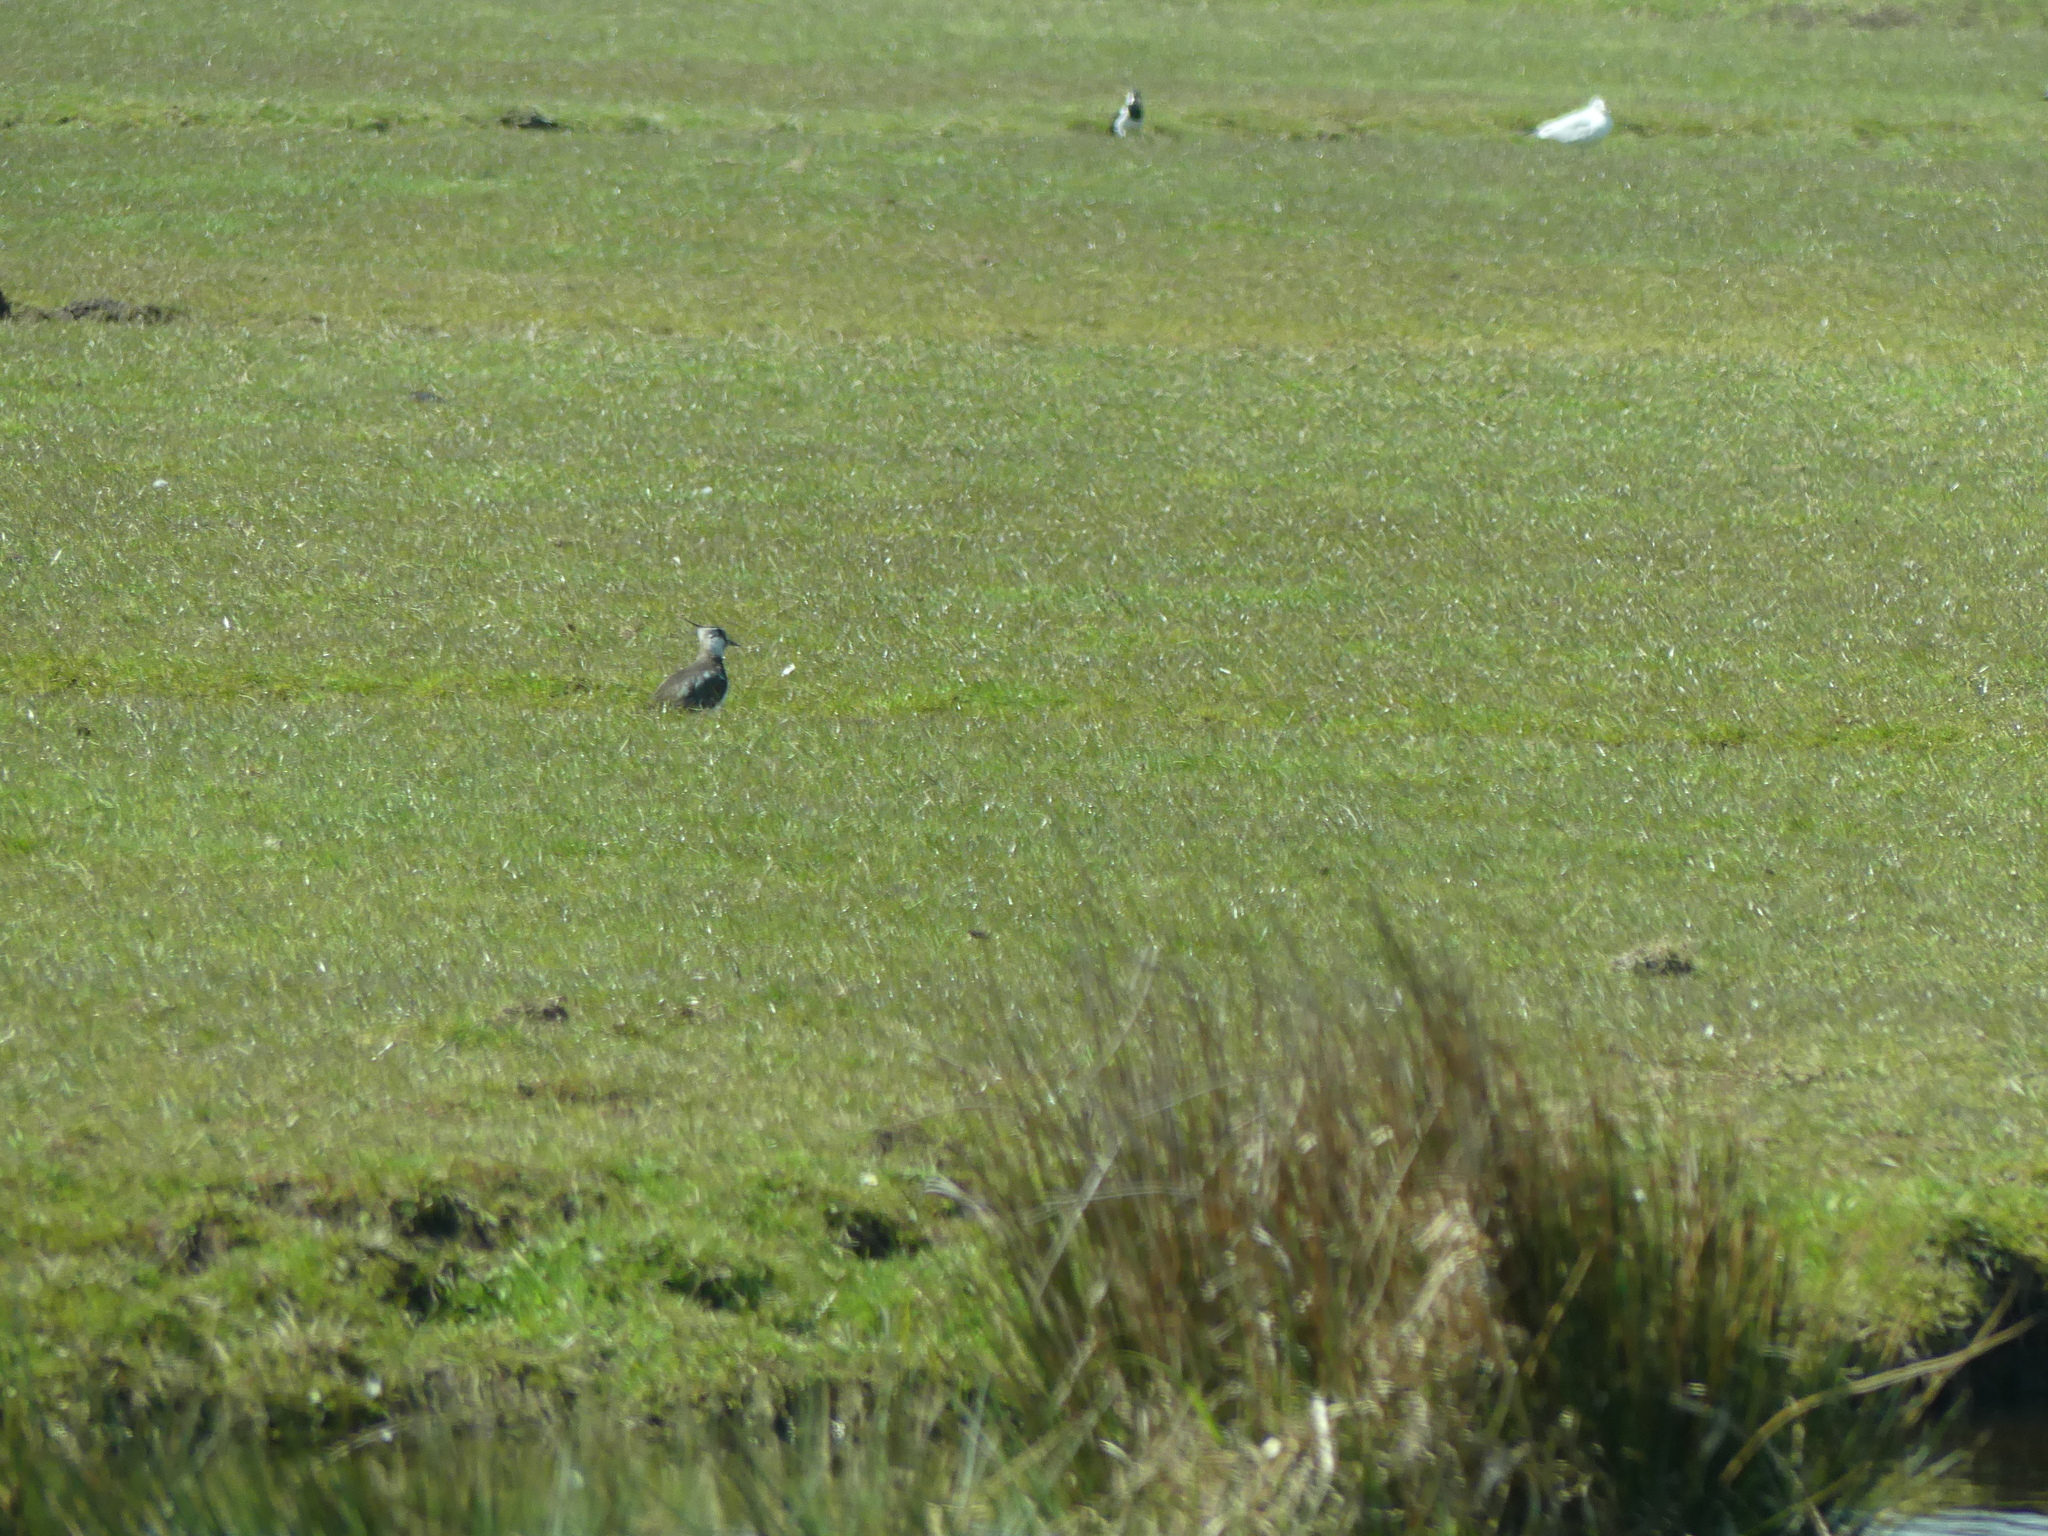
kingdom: Animalia
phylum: Chordata
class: Aves
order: Charadriiformes
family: Charadriidae
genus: Vanellus
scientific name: Vanellus vanellus
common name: Northern lapwing
